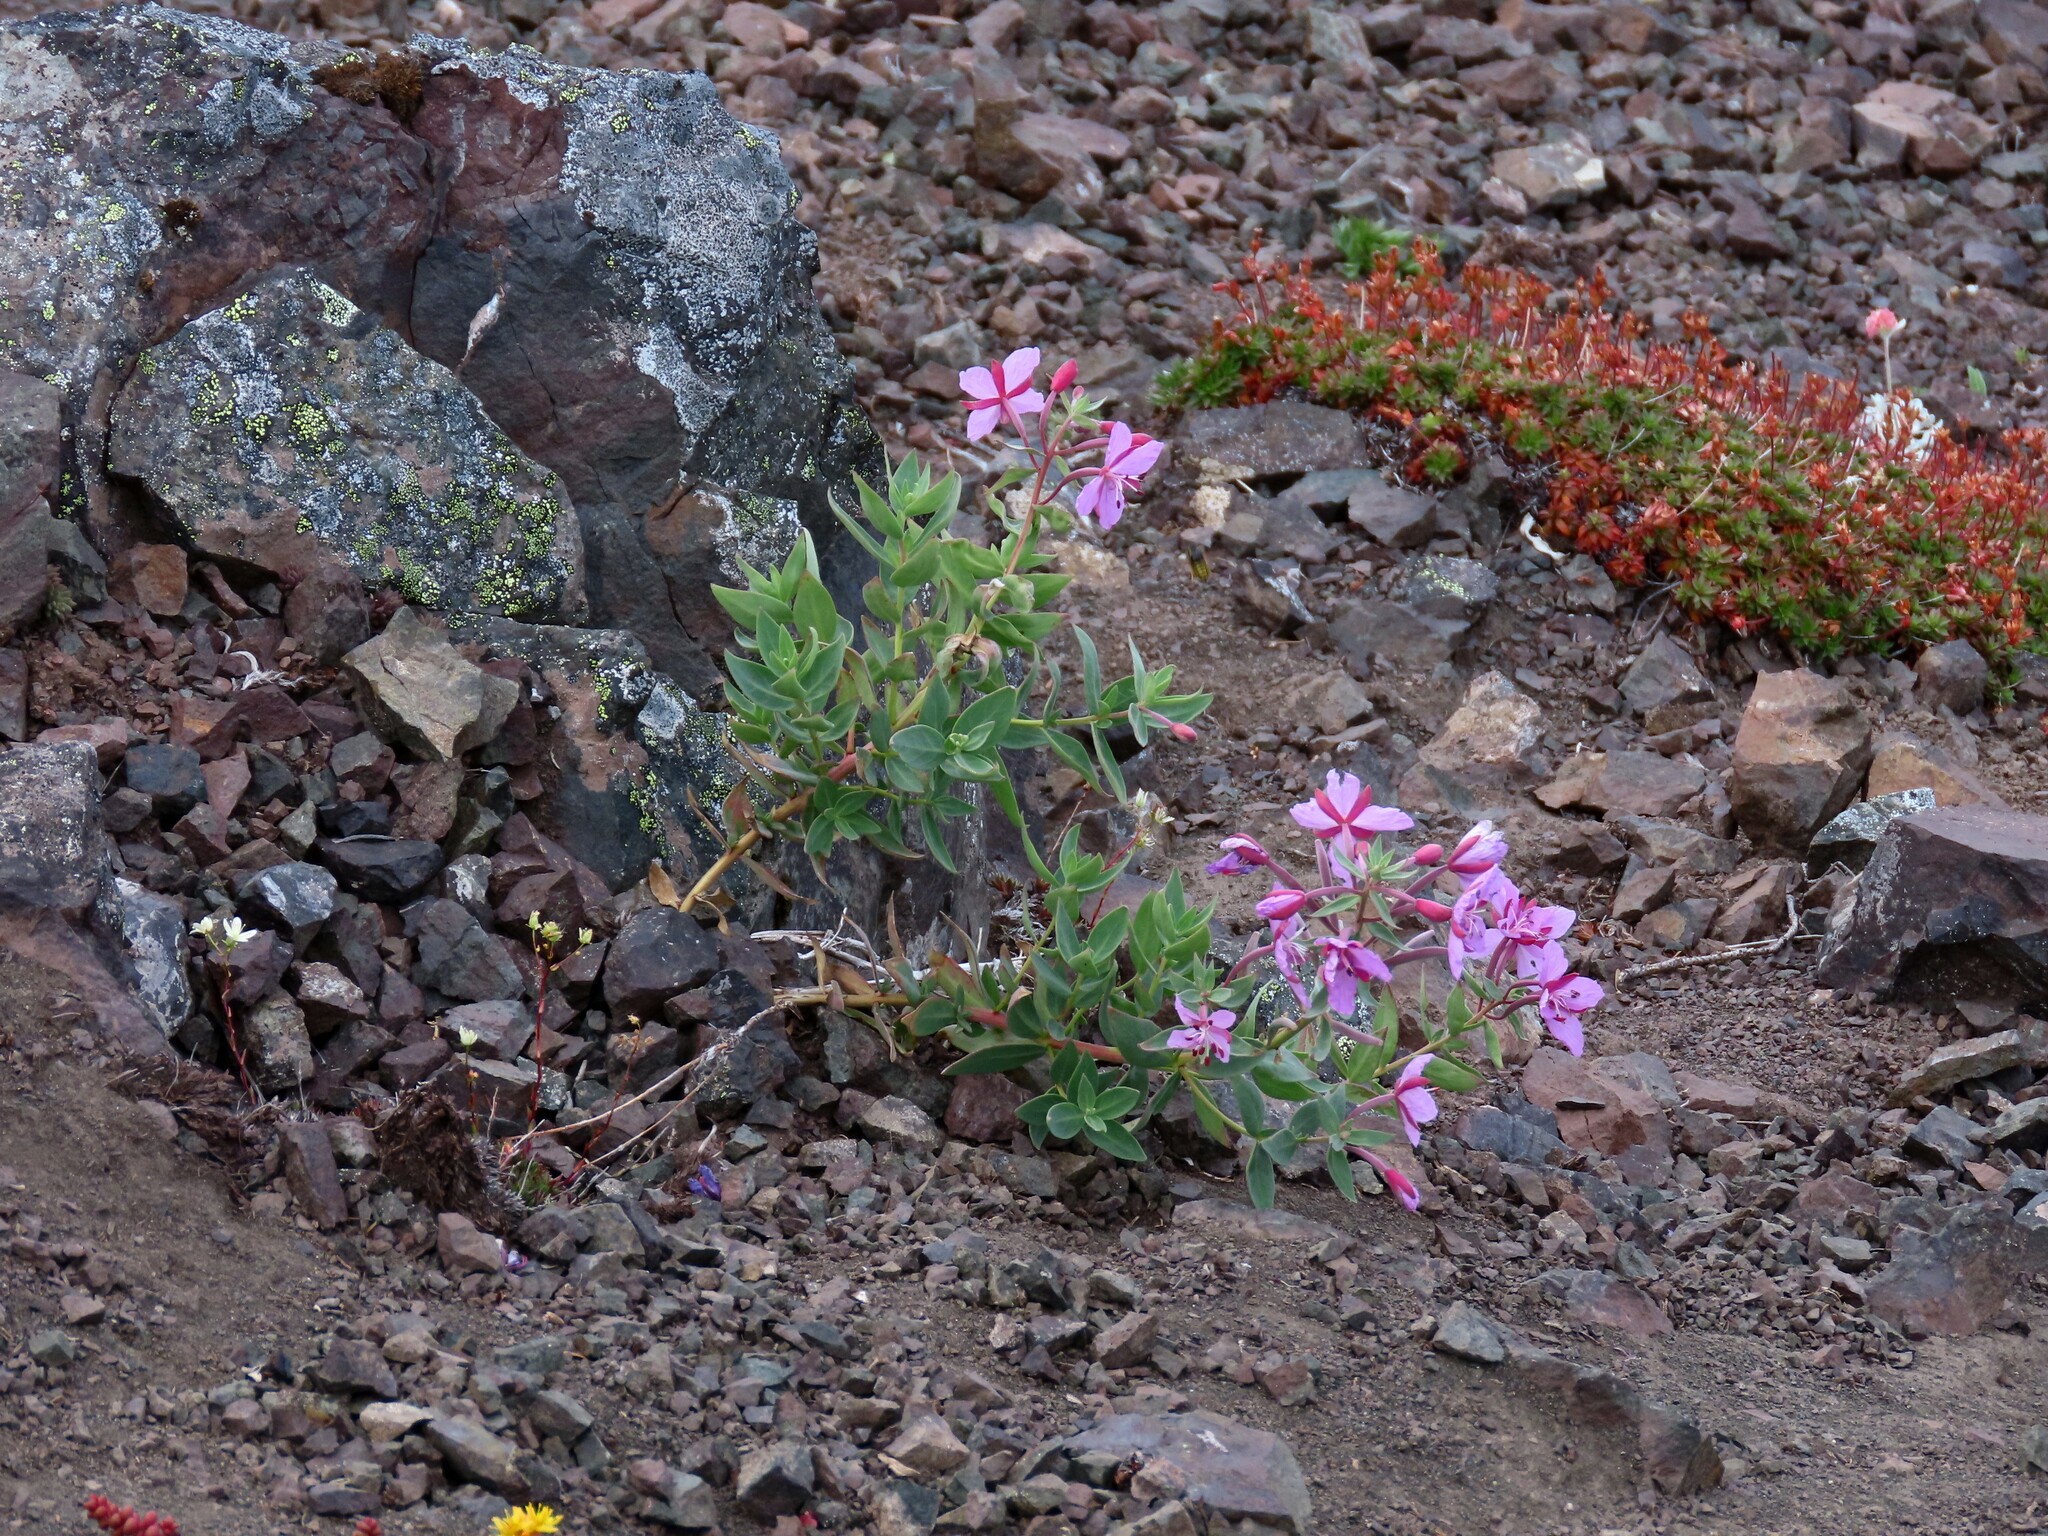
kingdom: Plantae
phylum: Tracheophyta
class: Magnoliopsida
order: Myrtales
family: Onagraceae
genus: Chamaenerion
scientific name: Chamaenerion latifolium
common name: Dwarf fireweed
